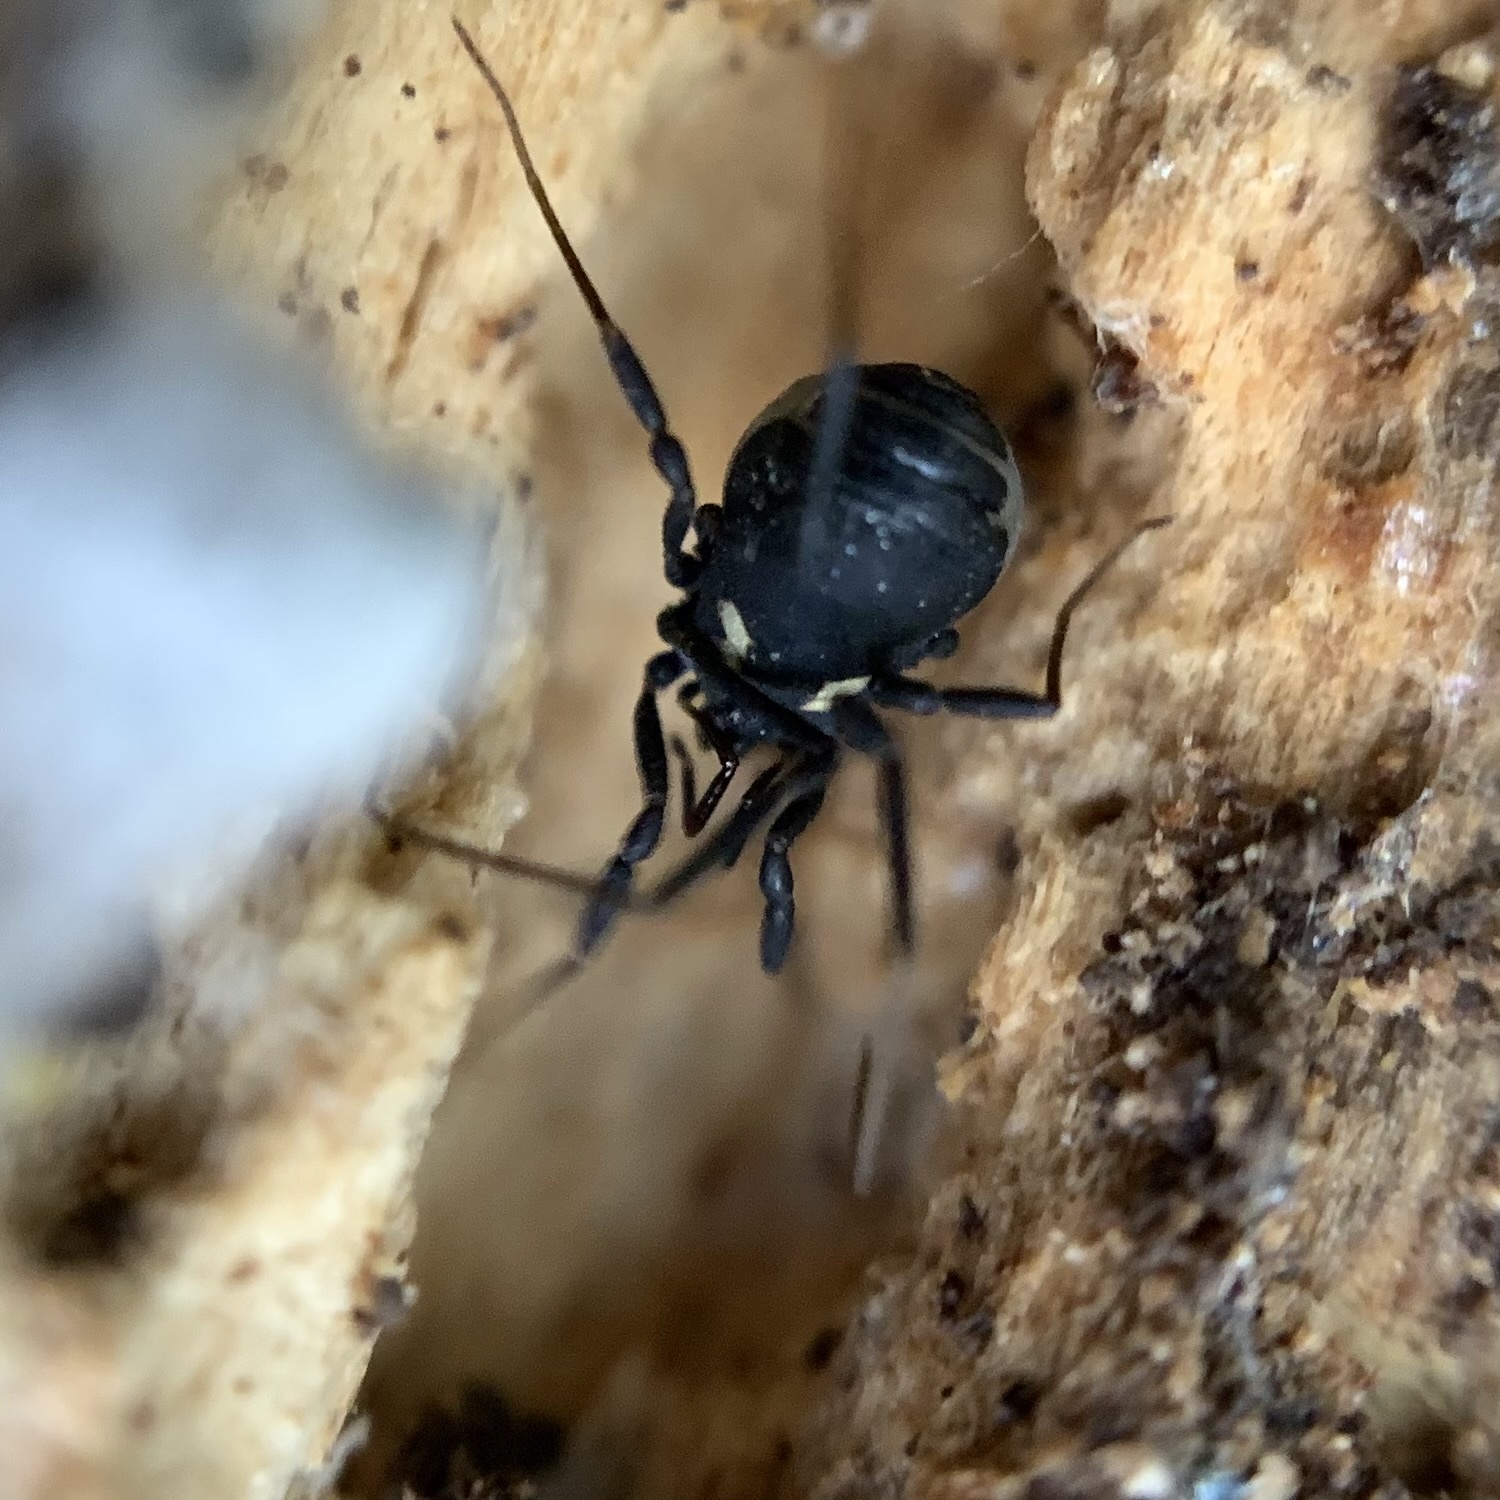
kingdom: Animalia
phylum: Arthropoda
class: Arachnida
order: Opiliones
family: Nemastomatidae
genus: Nemastoma
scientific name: Nemastoma bimaculatum
